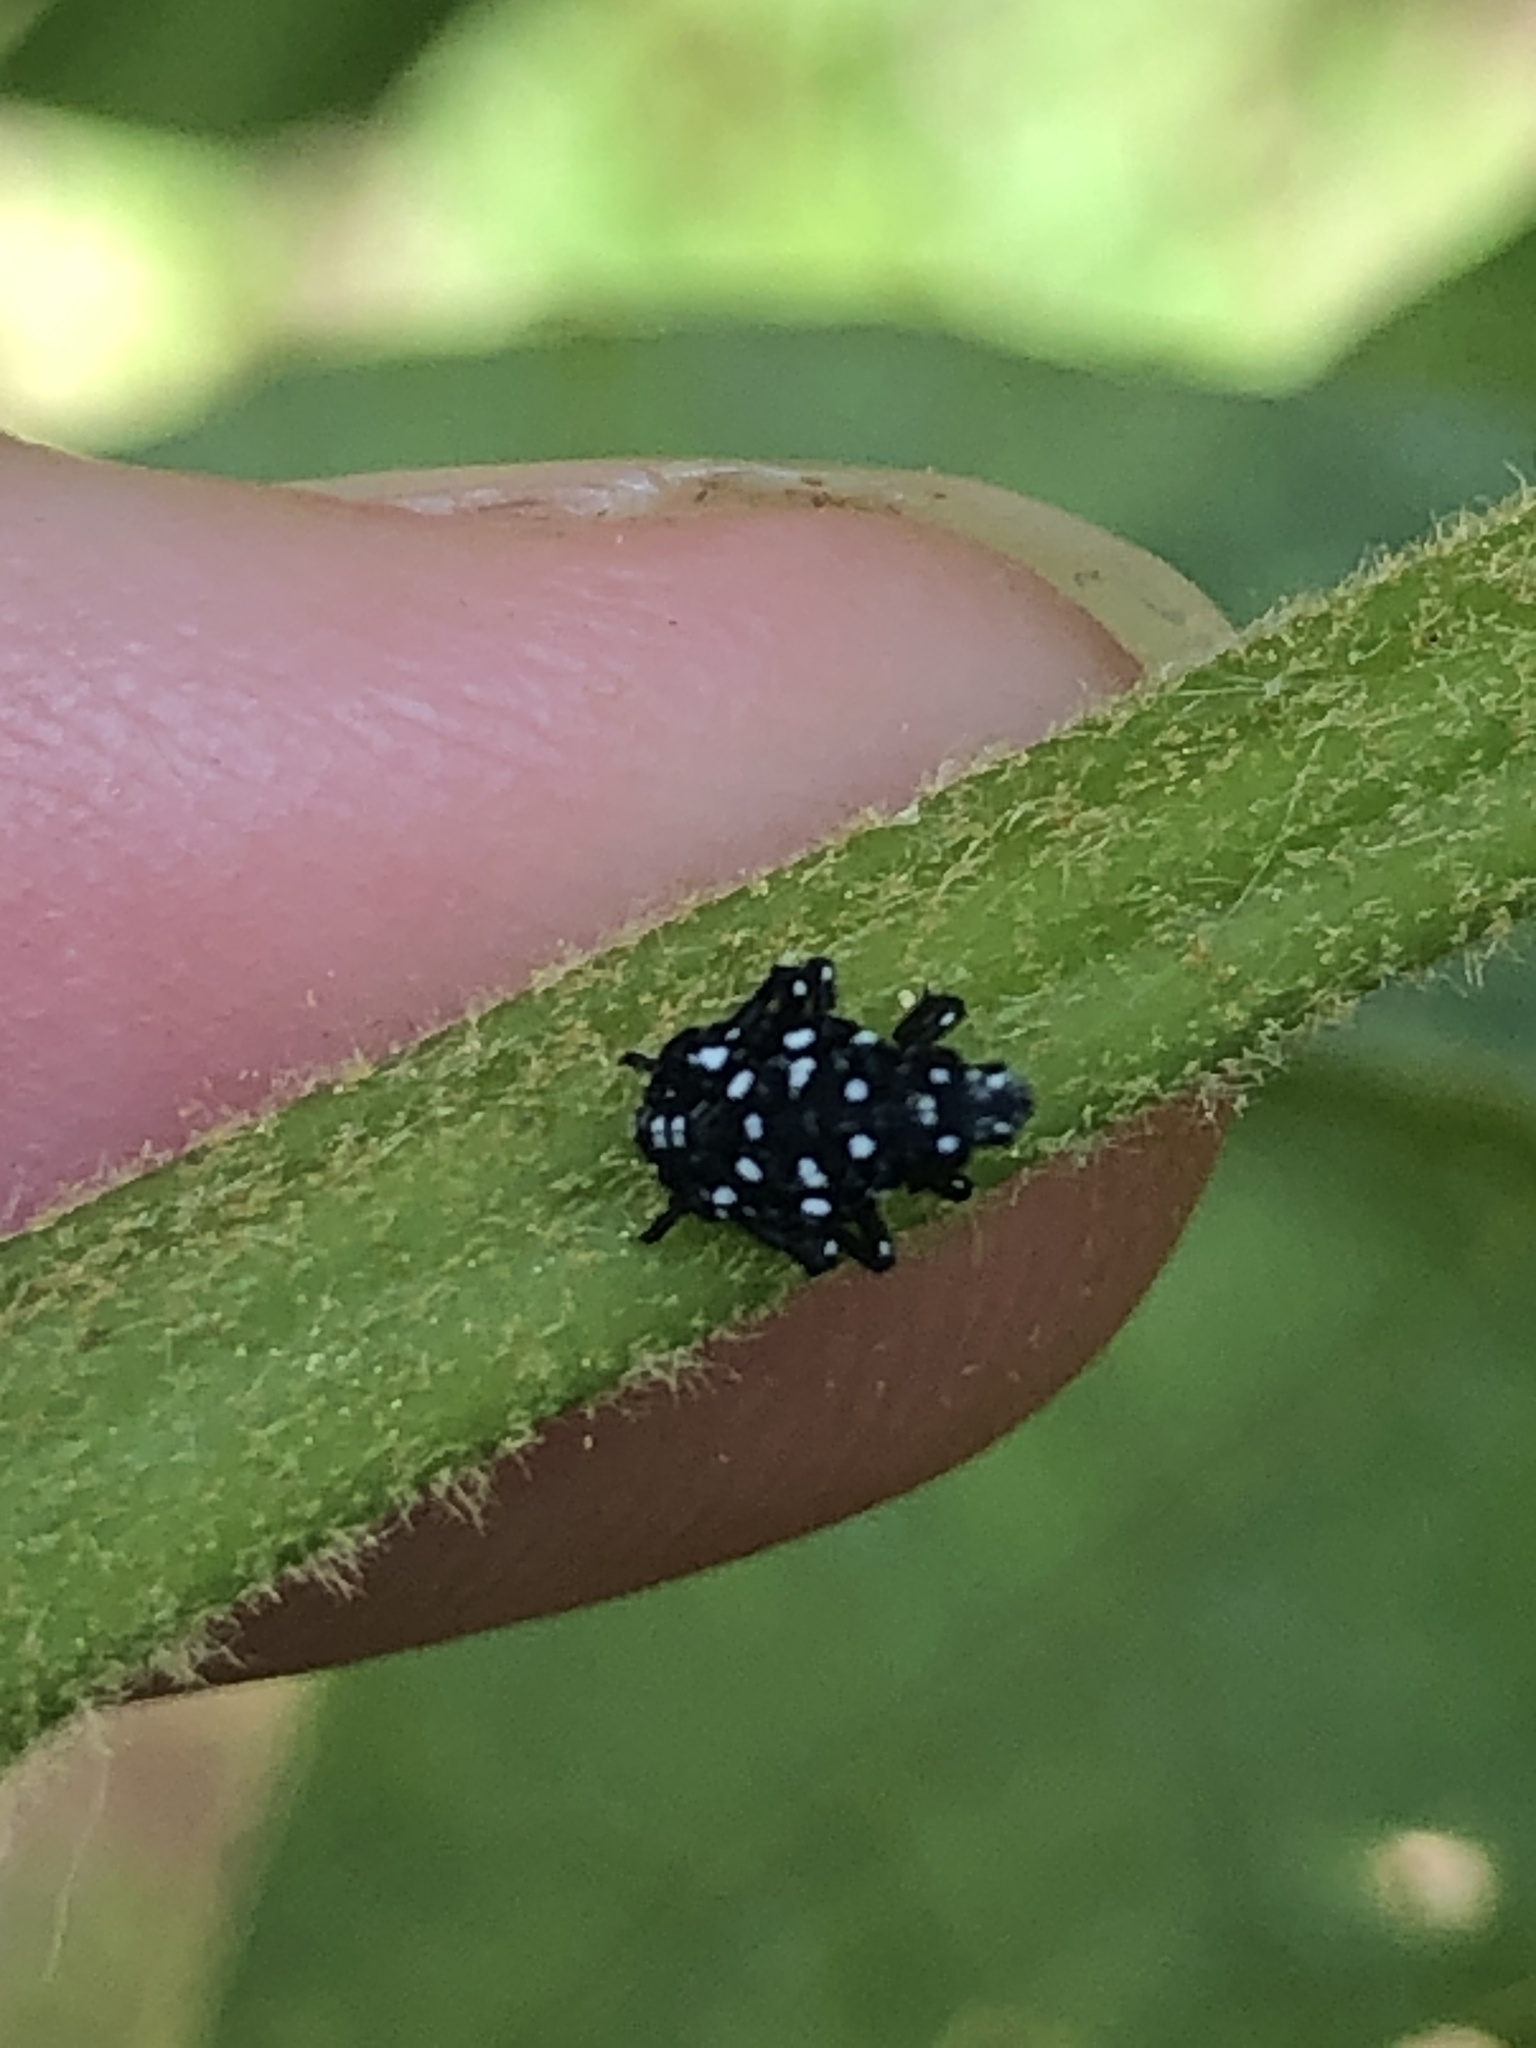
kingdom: Animalia
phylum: Arthropoda
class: Insecta
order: Hemiptera
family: Fulgoridae
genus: Lycorma
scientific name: Lycorma delicatula
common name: Spotted lanternfly
